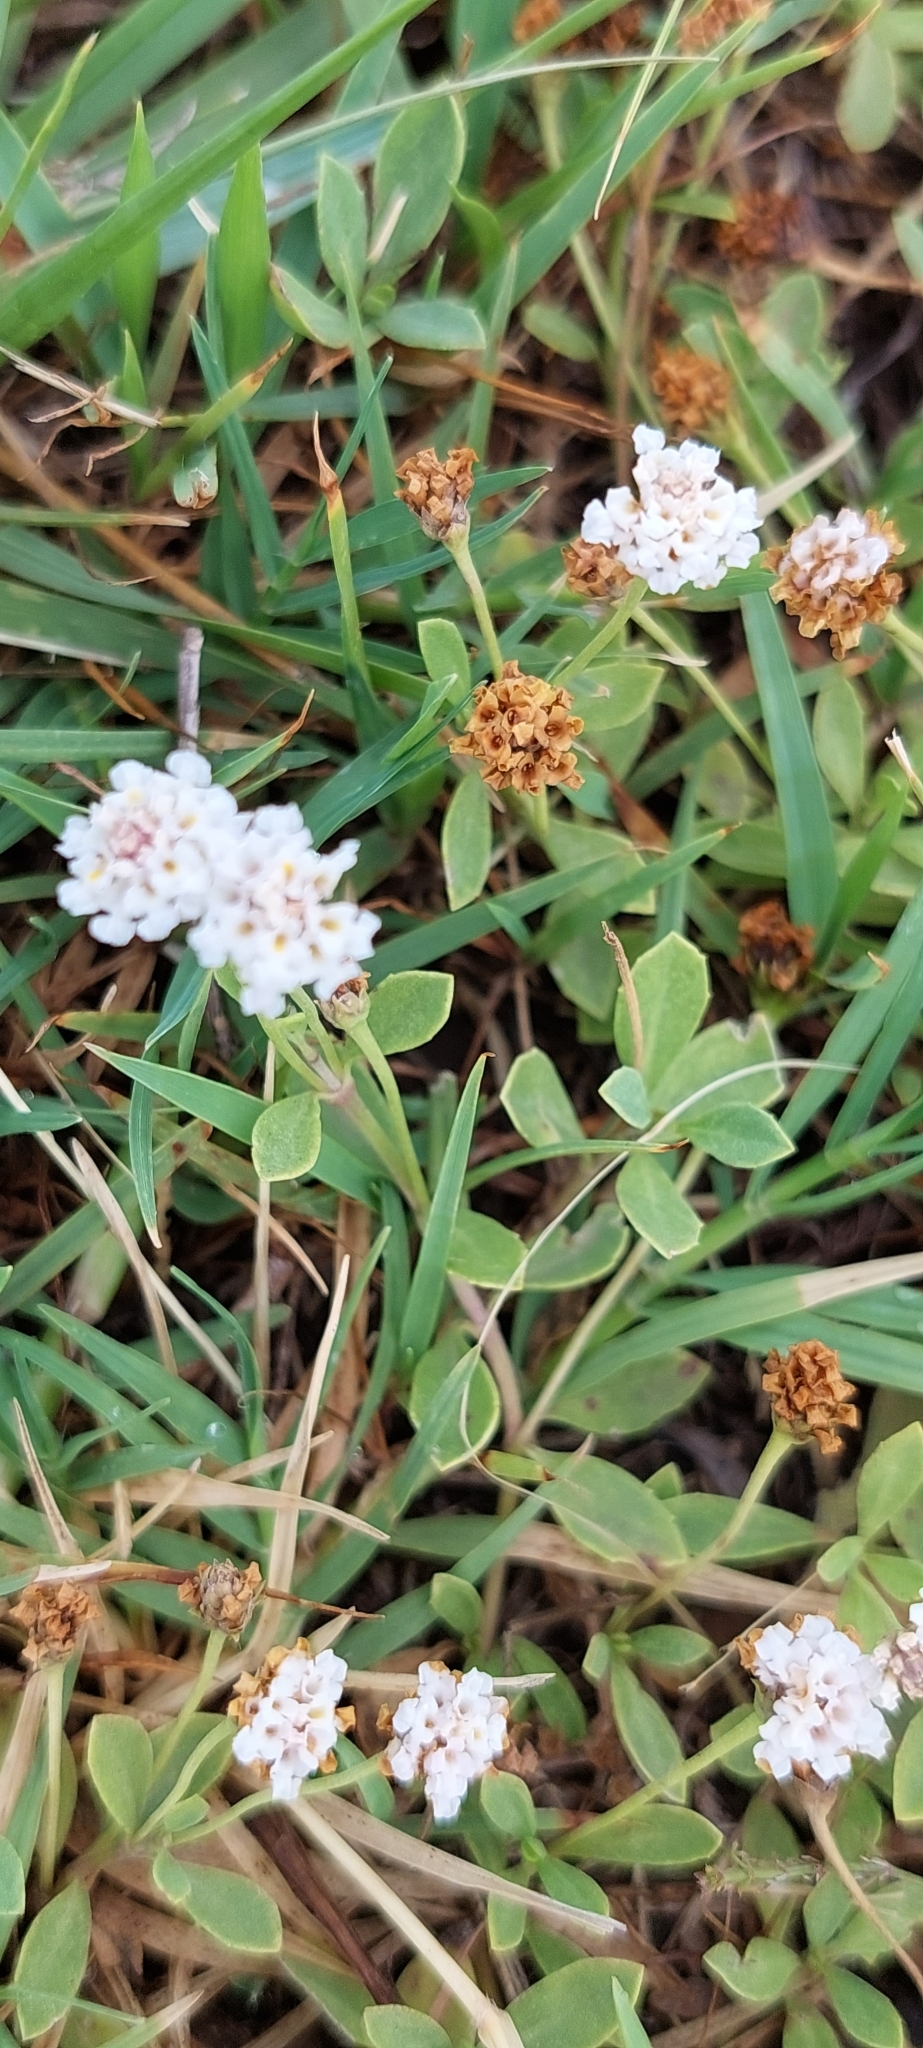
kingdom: Plantae
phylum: Tracheophyta
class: Magnoliopsida
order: Lamiales
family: Verbenaceae
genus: Phyla
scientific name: Phyla nodiflora
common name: Frogfruit
